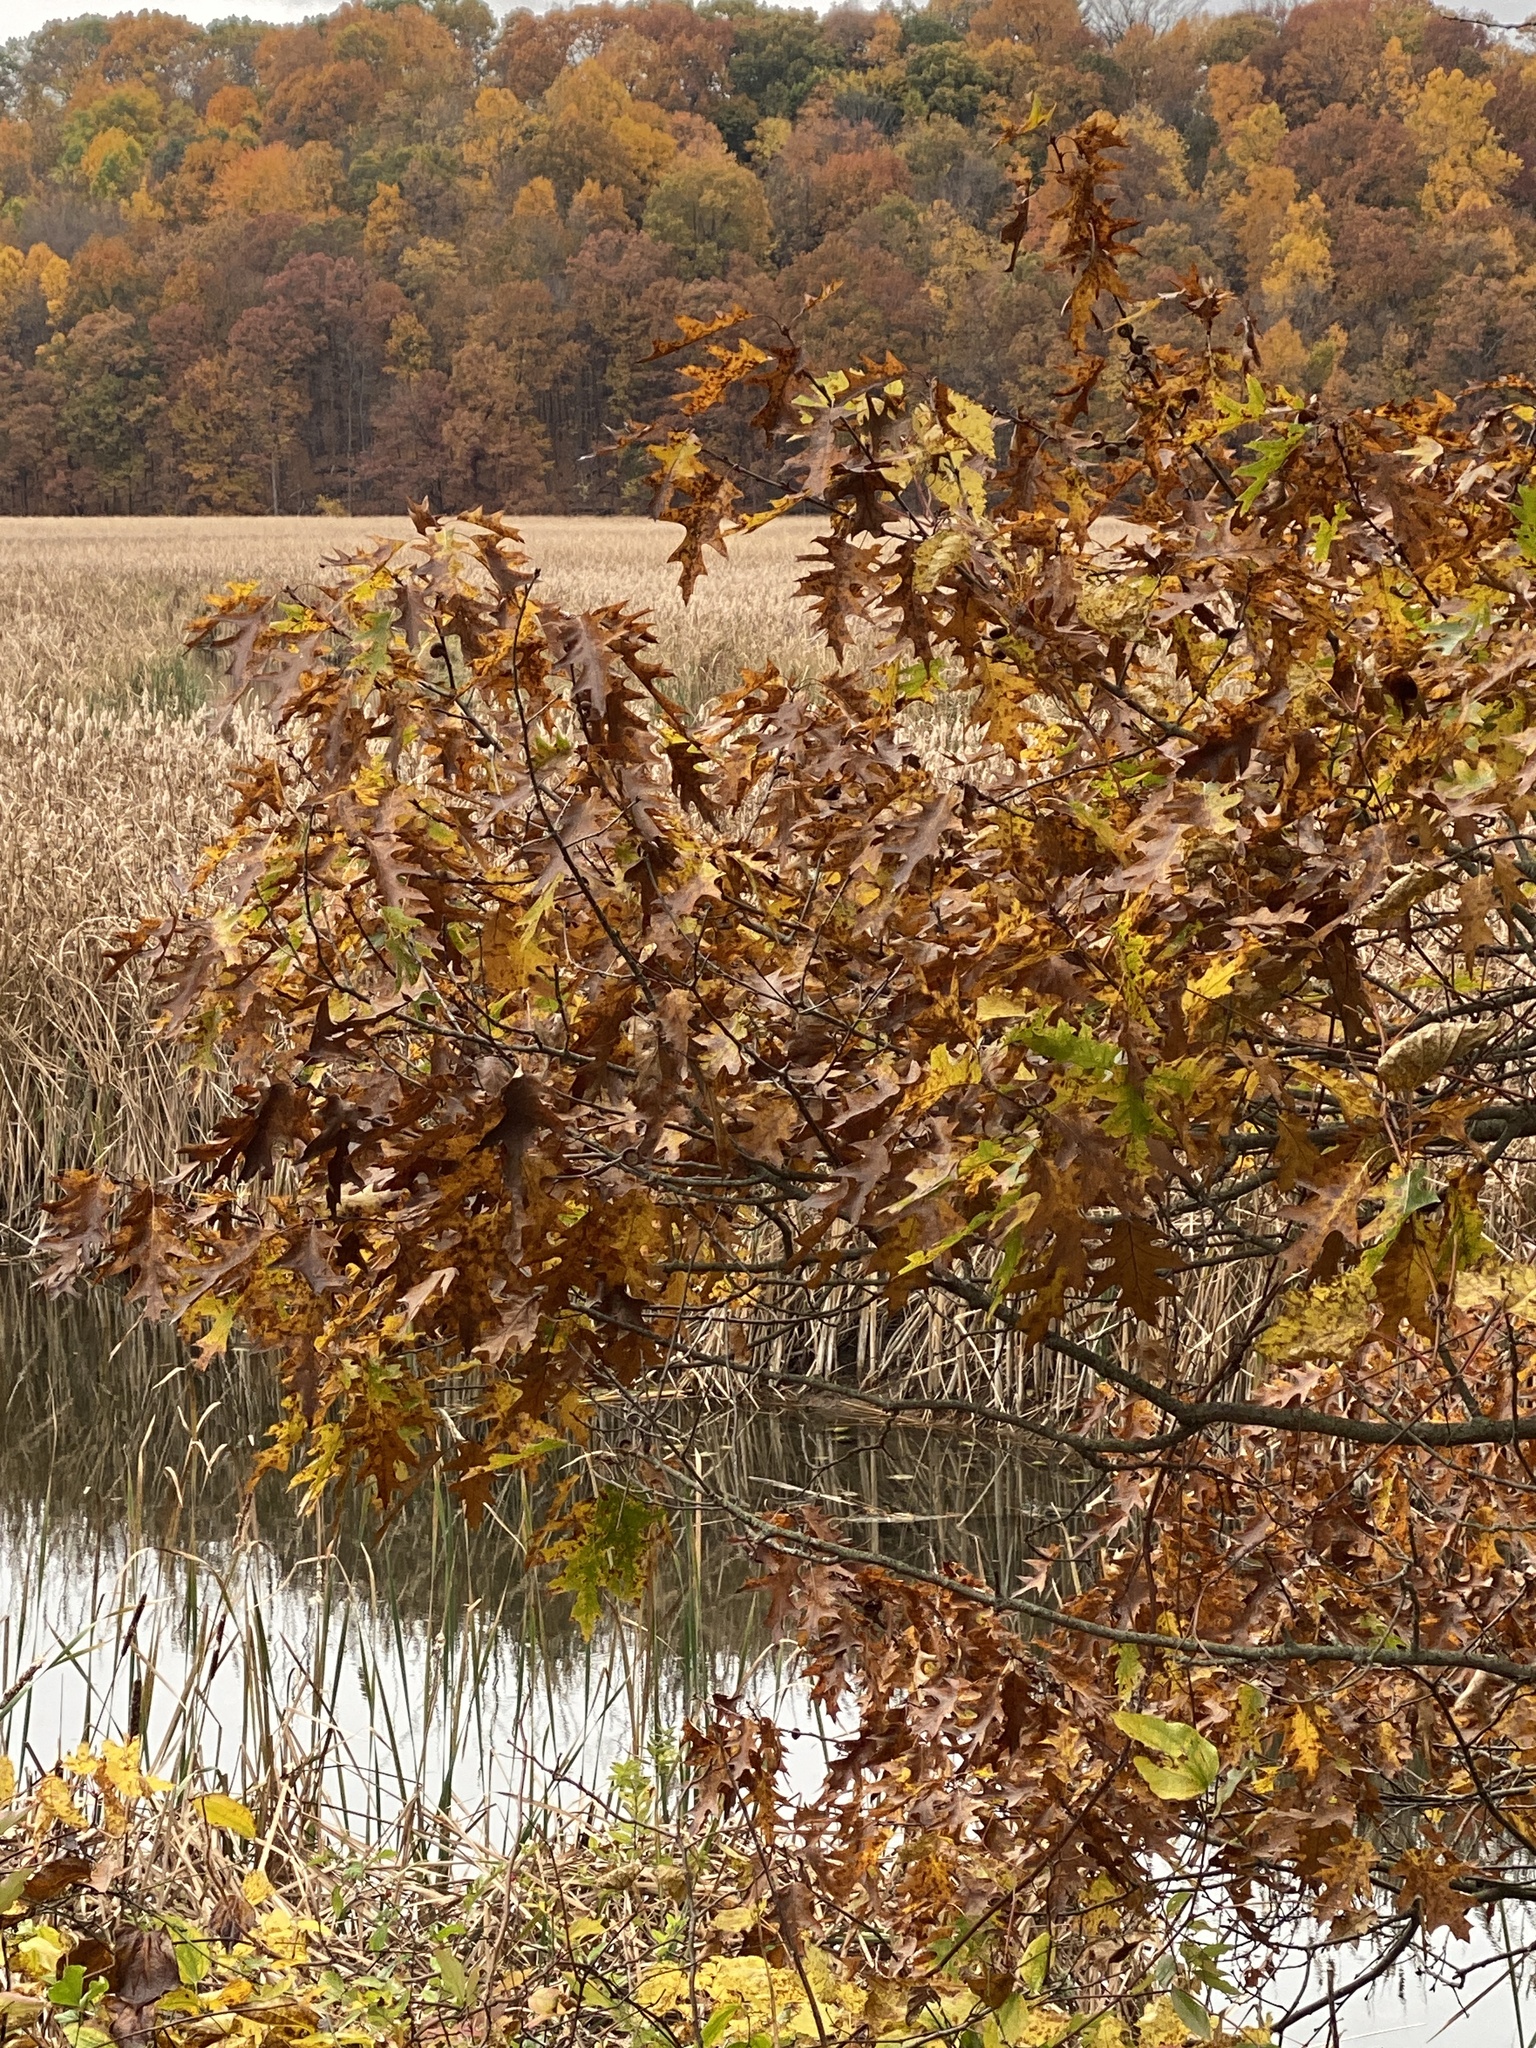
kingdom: Plantae
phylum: Tracheophyta
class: Magnoliopsida
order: Fagales
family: Fagaceae
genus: Quercus
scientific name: Quercus rubra
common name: Red oak
